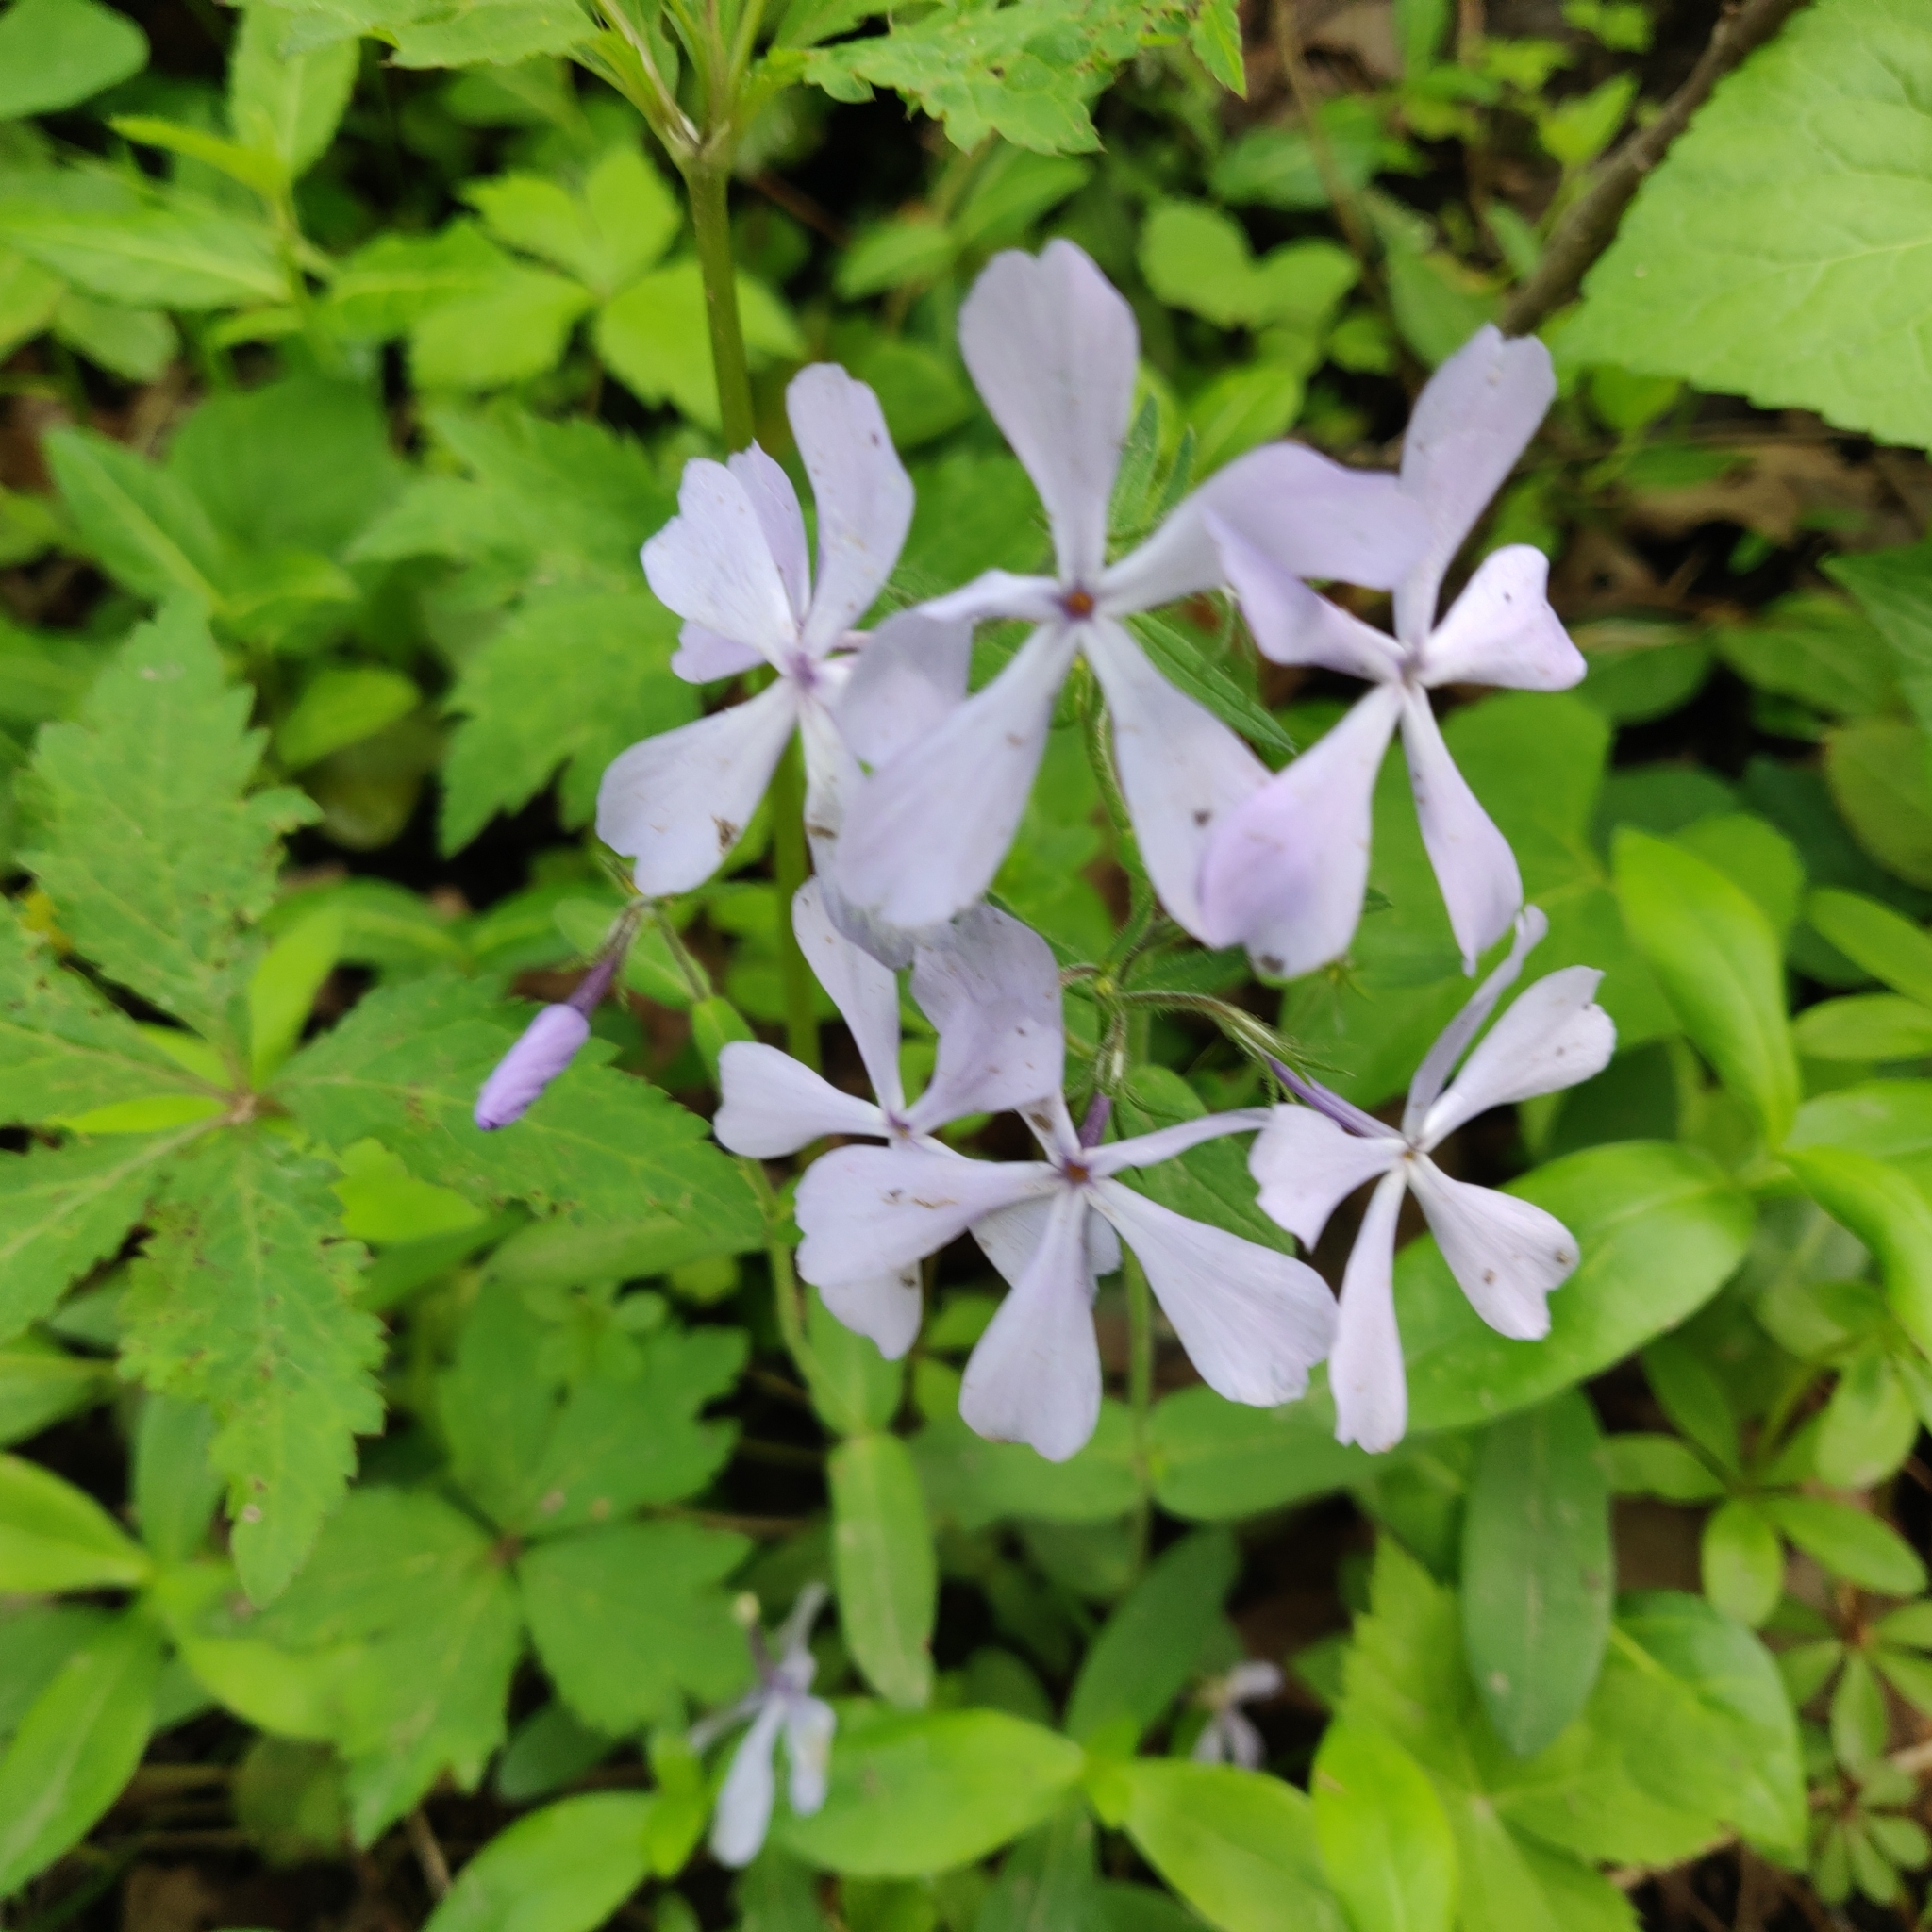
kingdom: Plantae
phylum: Tracheophyta
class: Magnoliopsida
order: Ericales
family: Polemoniaceae
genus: Phlox
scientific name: Phlox divaricata
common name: Blue phlox
